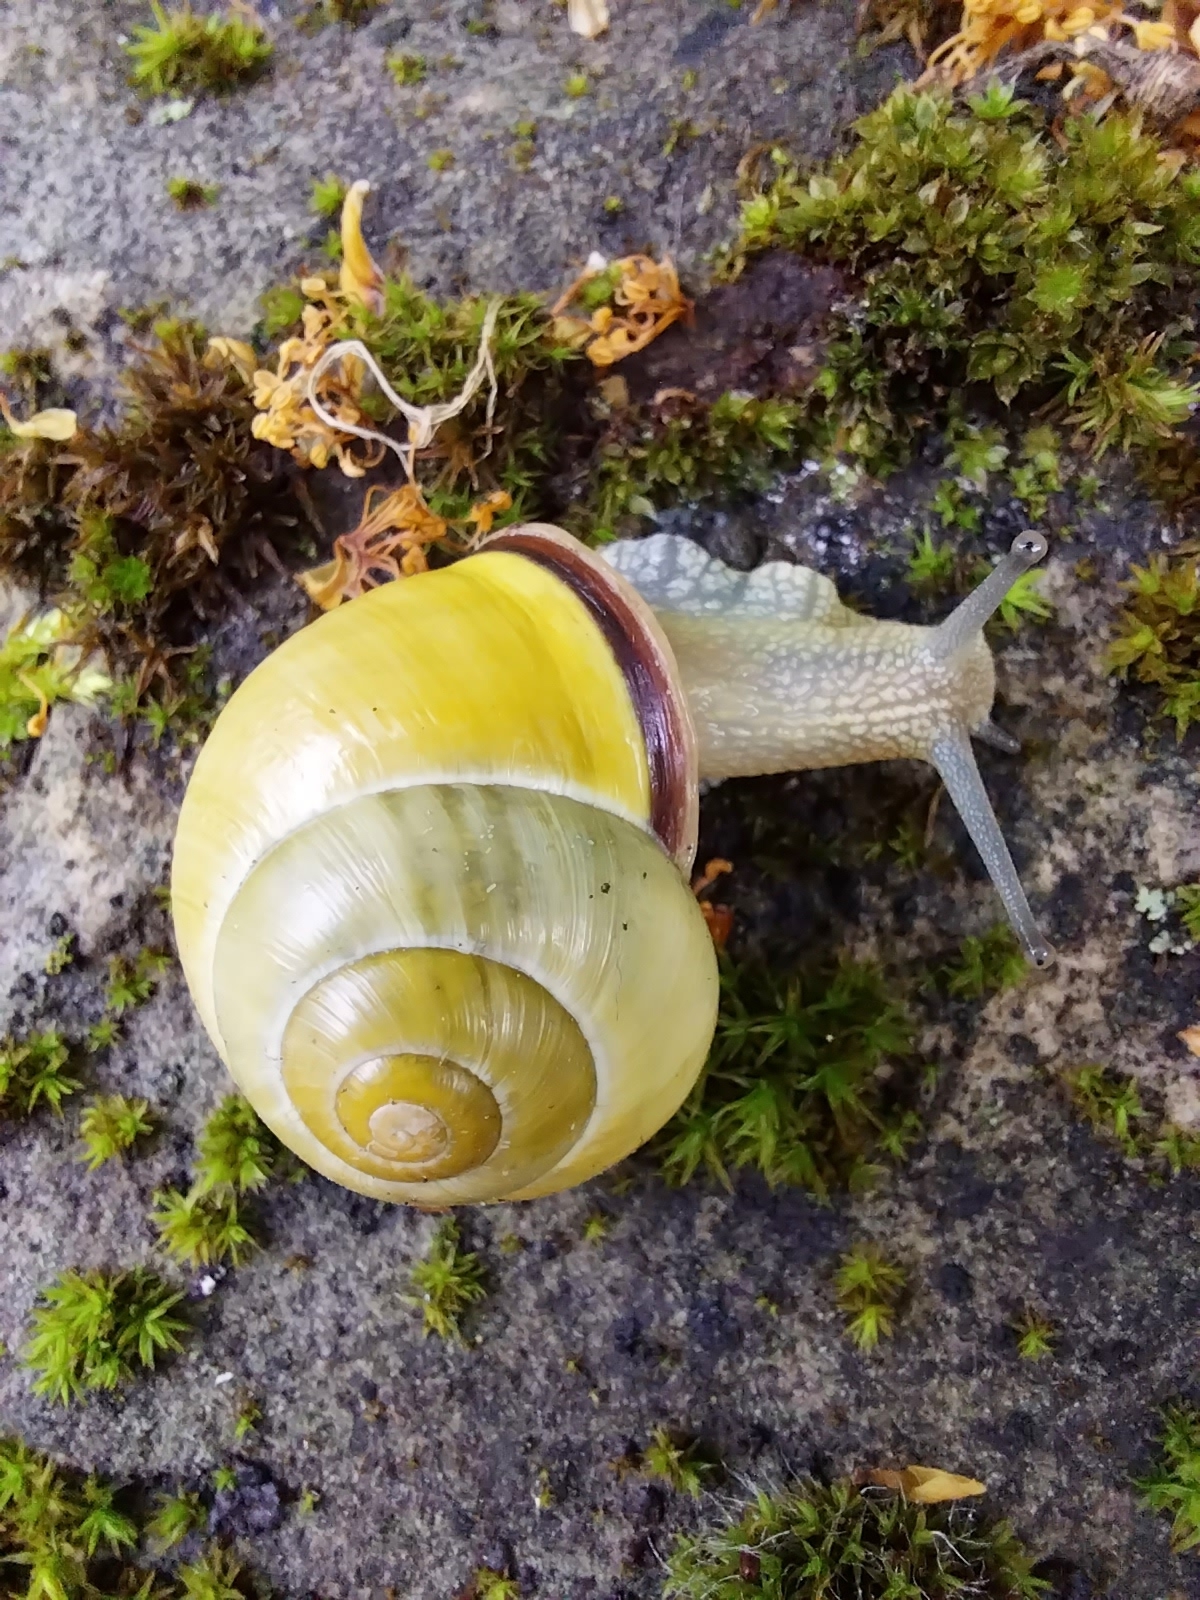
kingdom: Animalia
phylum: Mollusca
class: Gastropoda
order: Stylommatophora
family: Helicidae
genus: Cepaea
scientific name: Cepaea nemoralis
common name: Grovesnail
